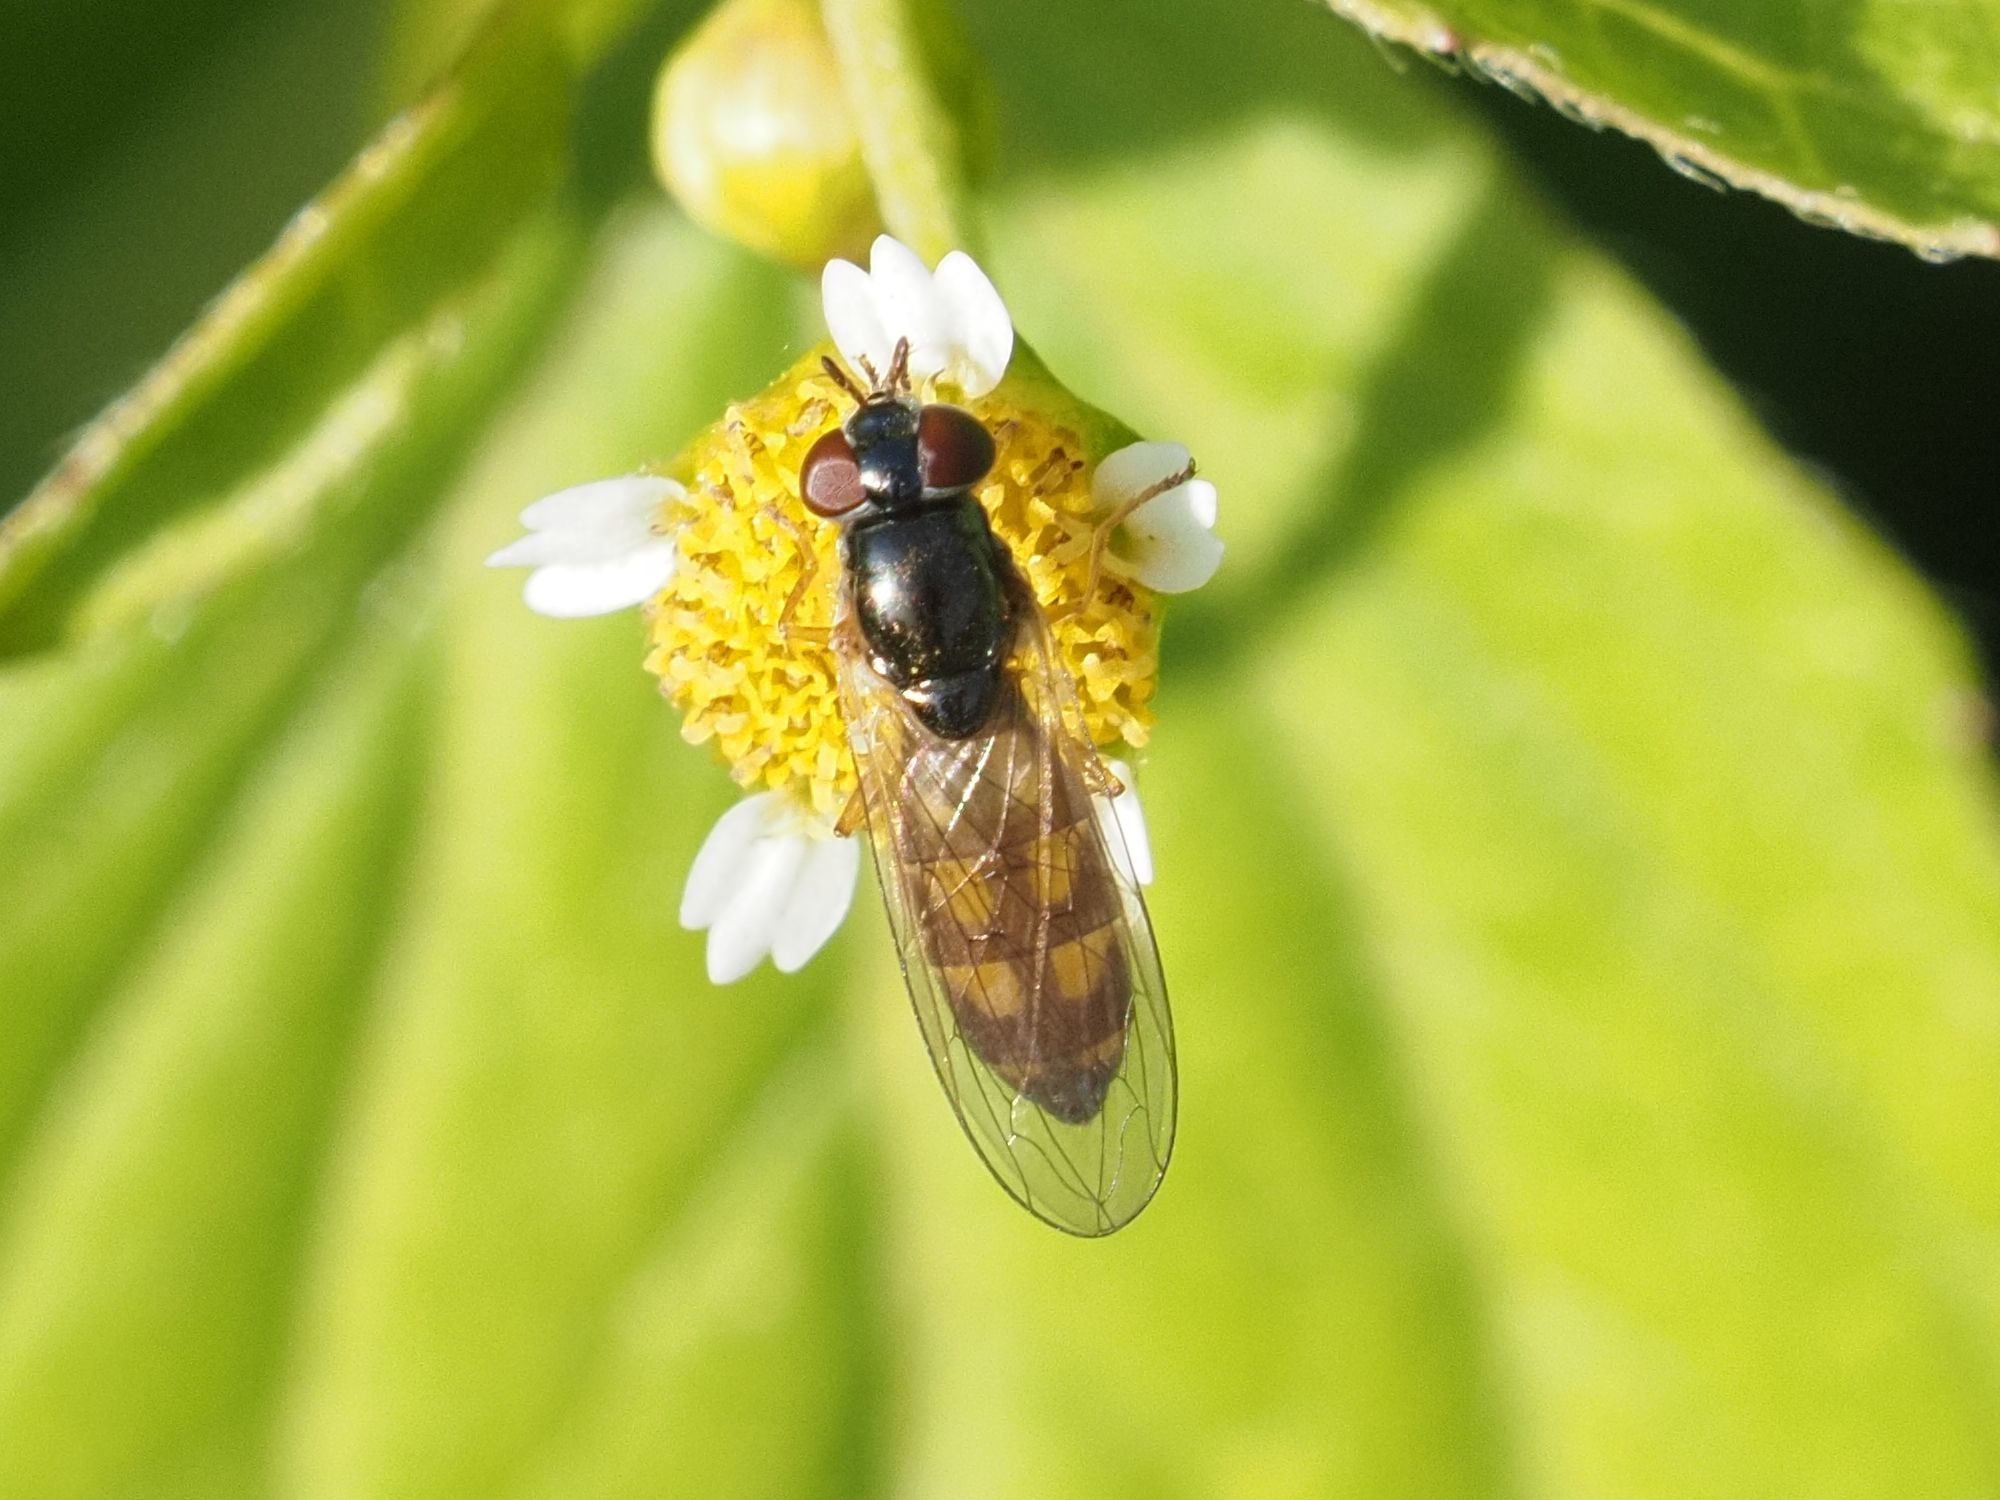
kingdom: Animalia
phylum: Arthropoda
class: Insecta
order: Diptera
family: Syrphidae
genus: Melanostoma
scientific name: Melanostoma mellina
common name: Hover fly
